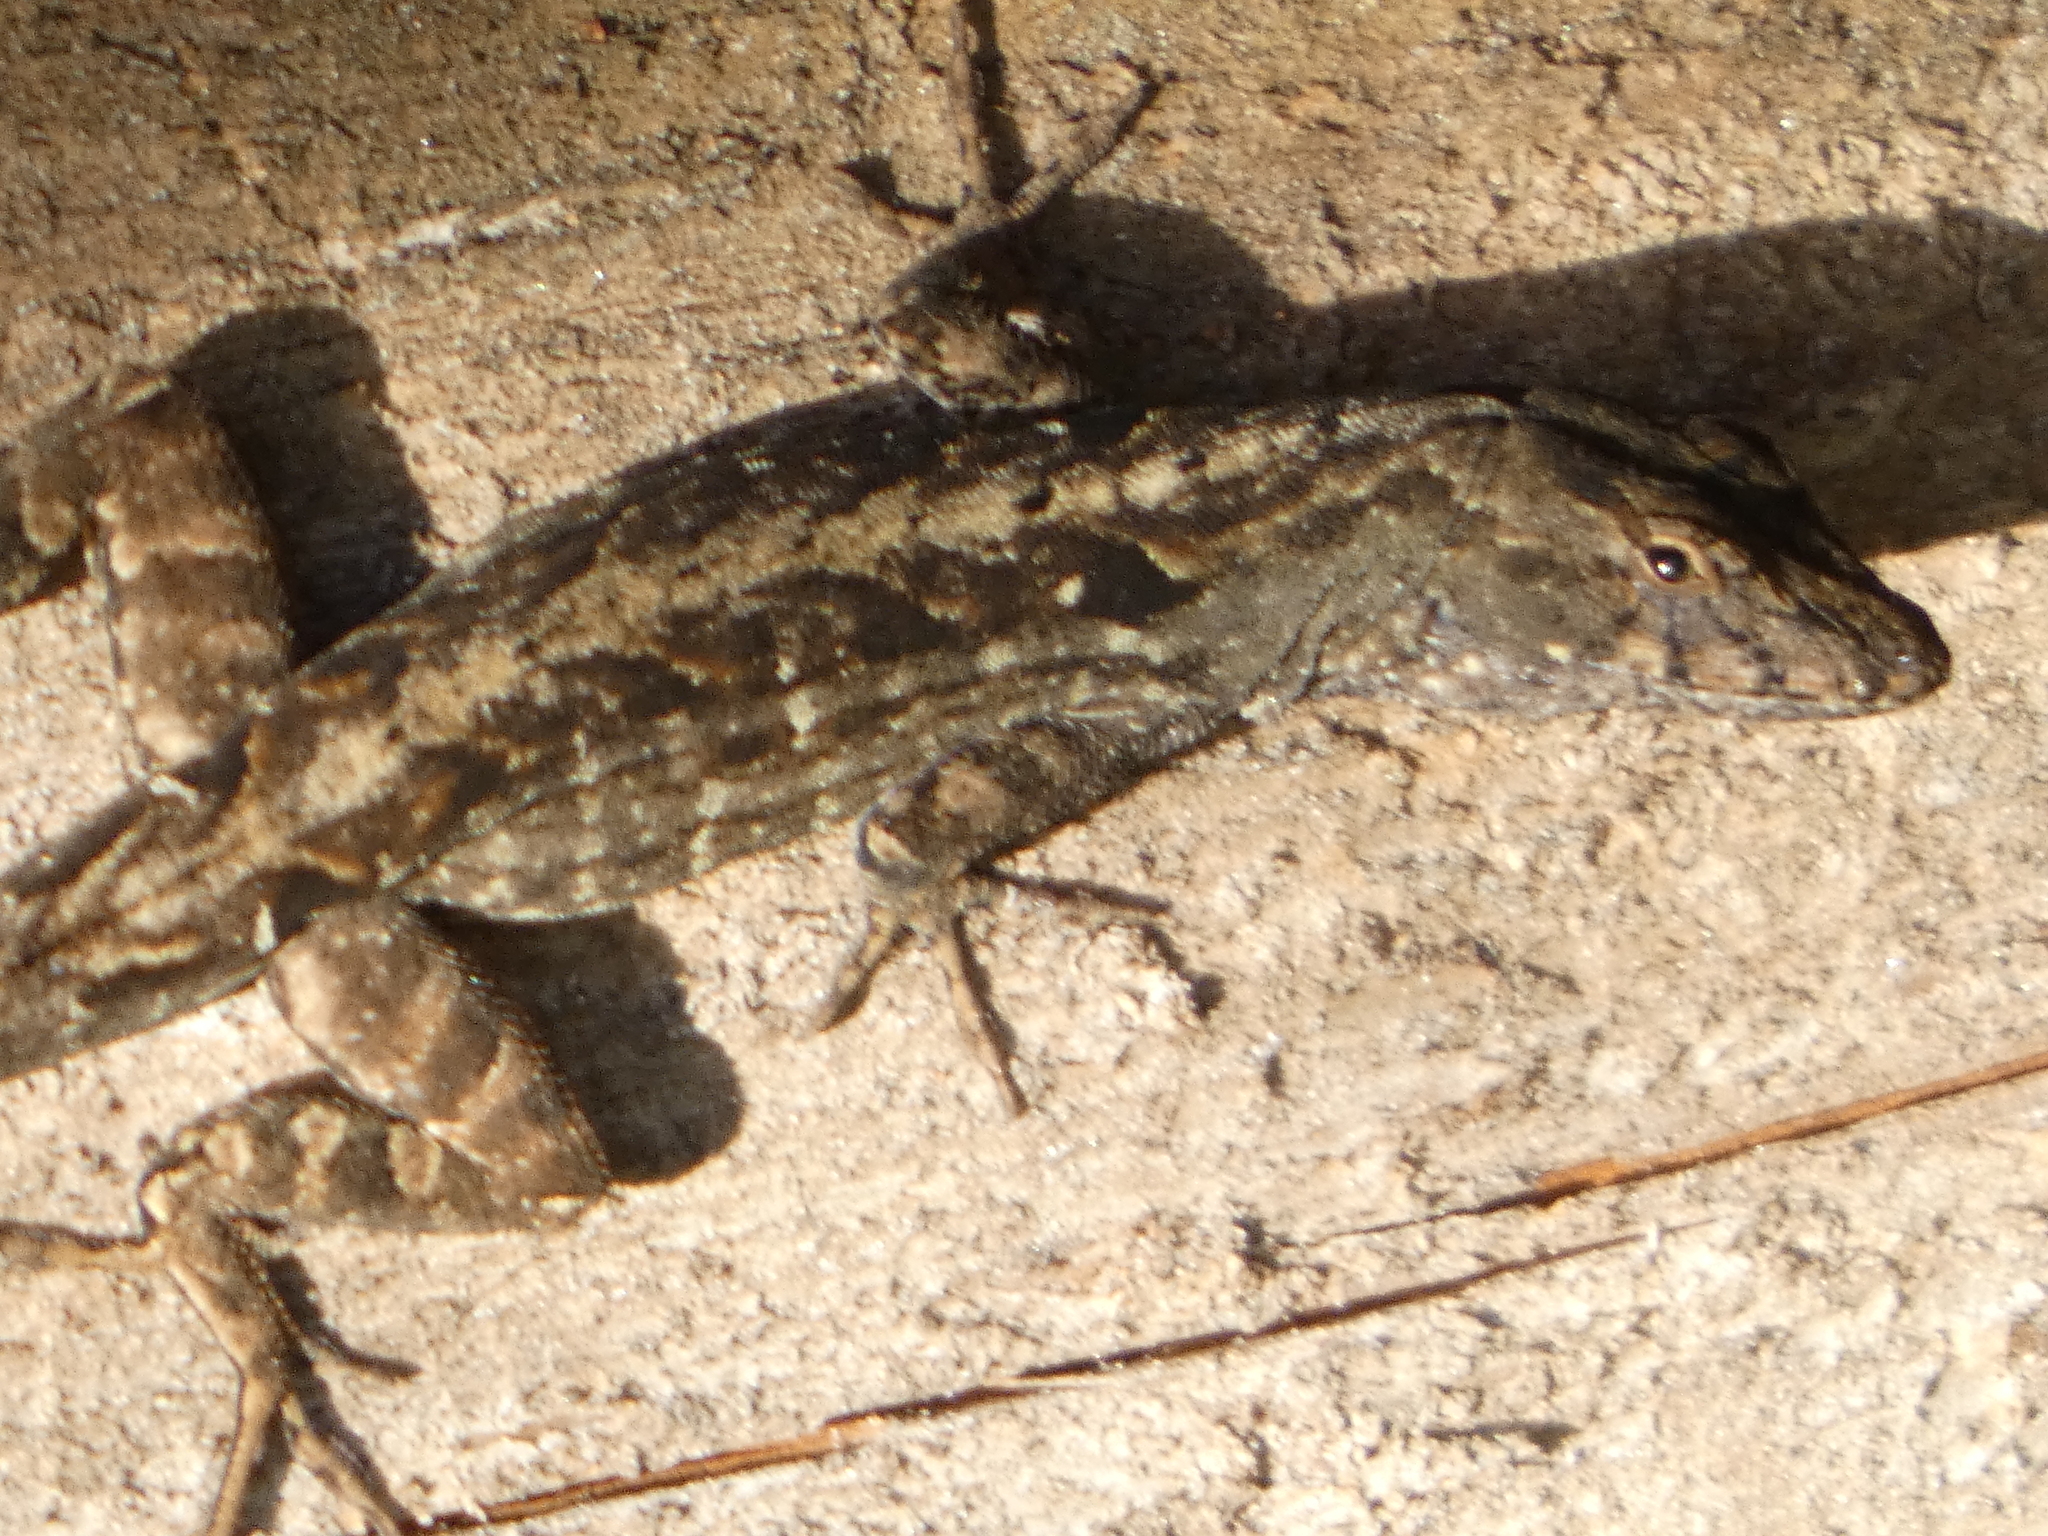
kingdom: Animalia
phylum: Chordata
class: Squamata
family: Dactyloidae
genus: Anolis
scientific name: Anolis sagrei
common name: Brown anole
